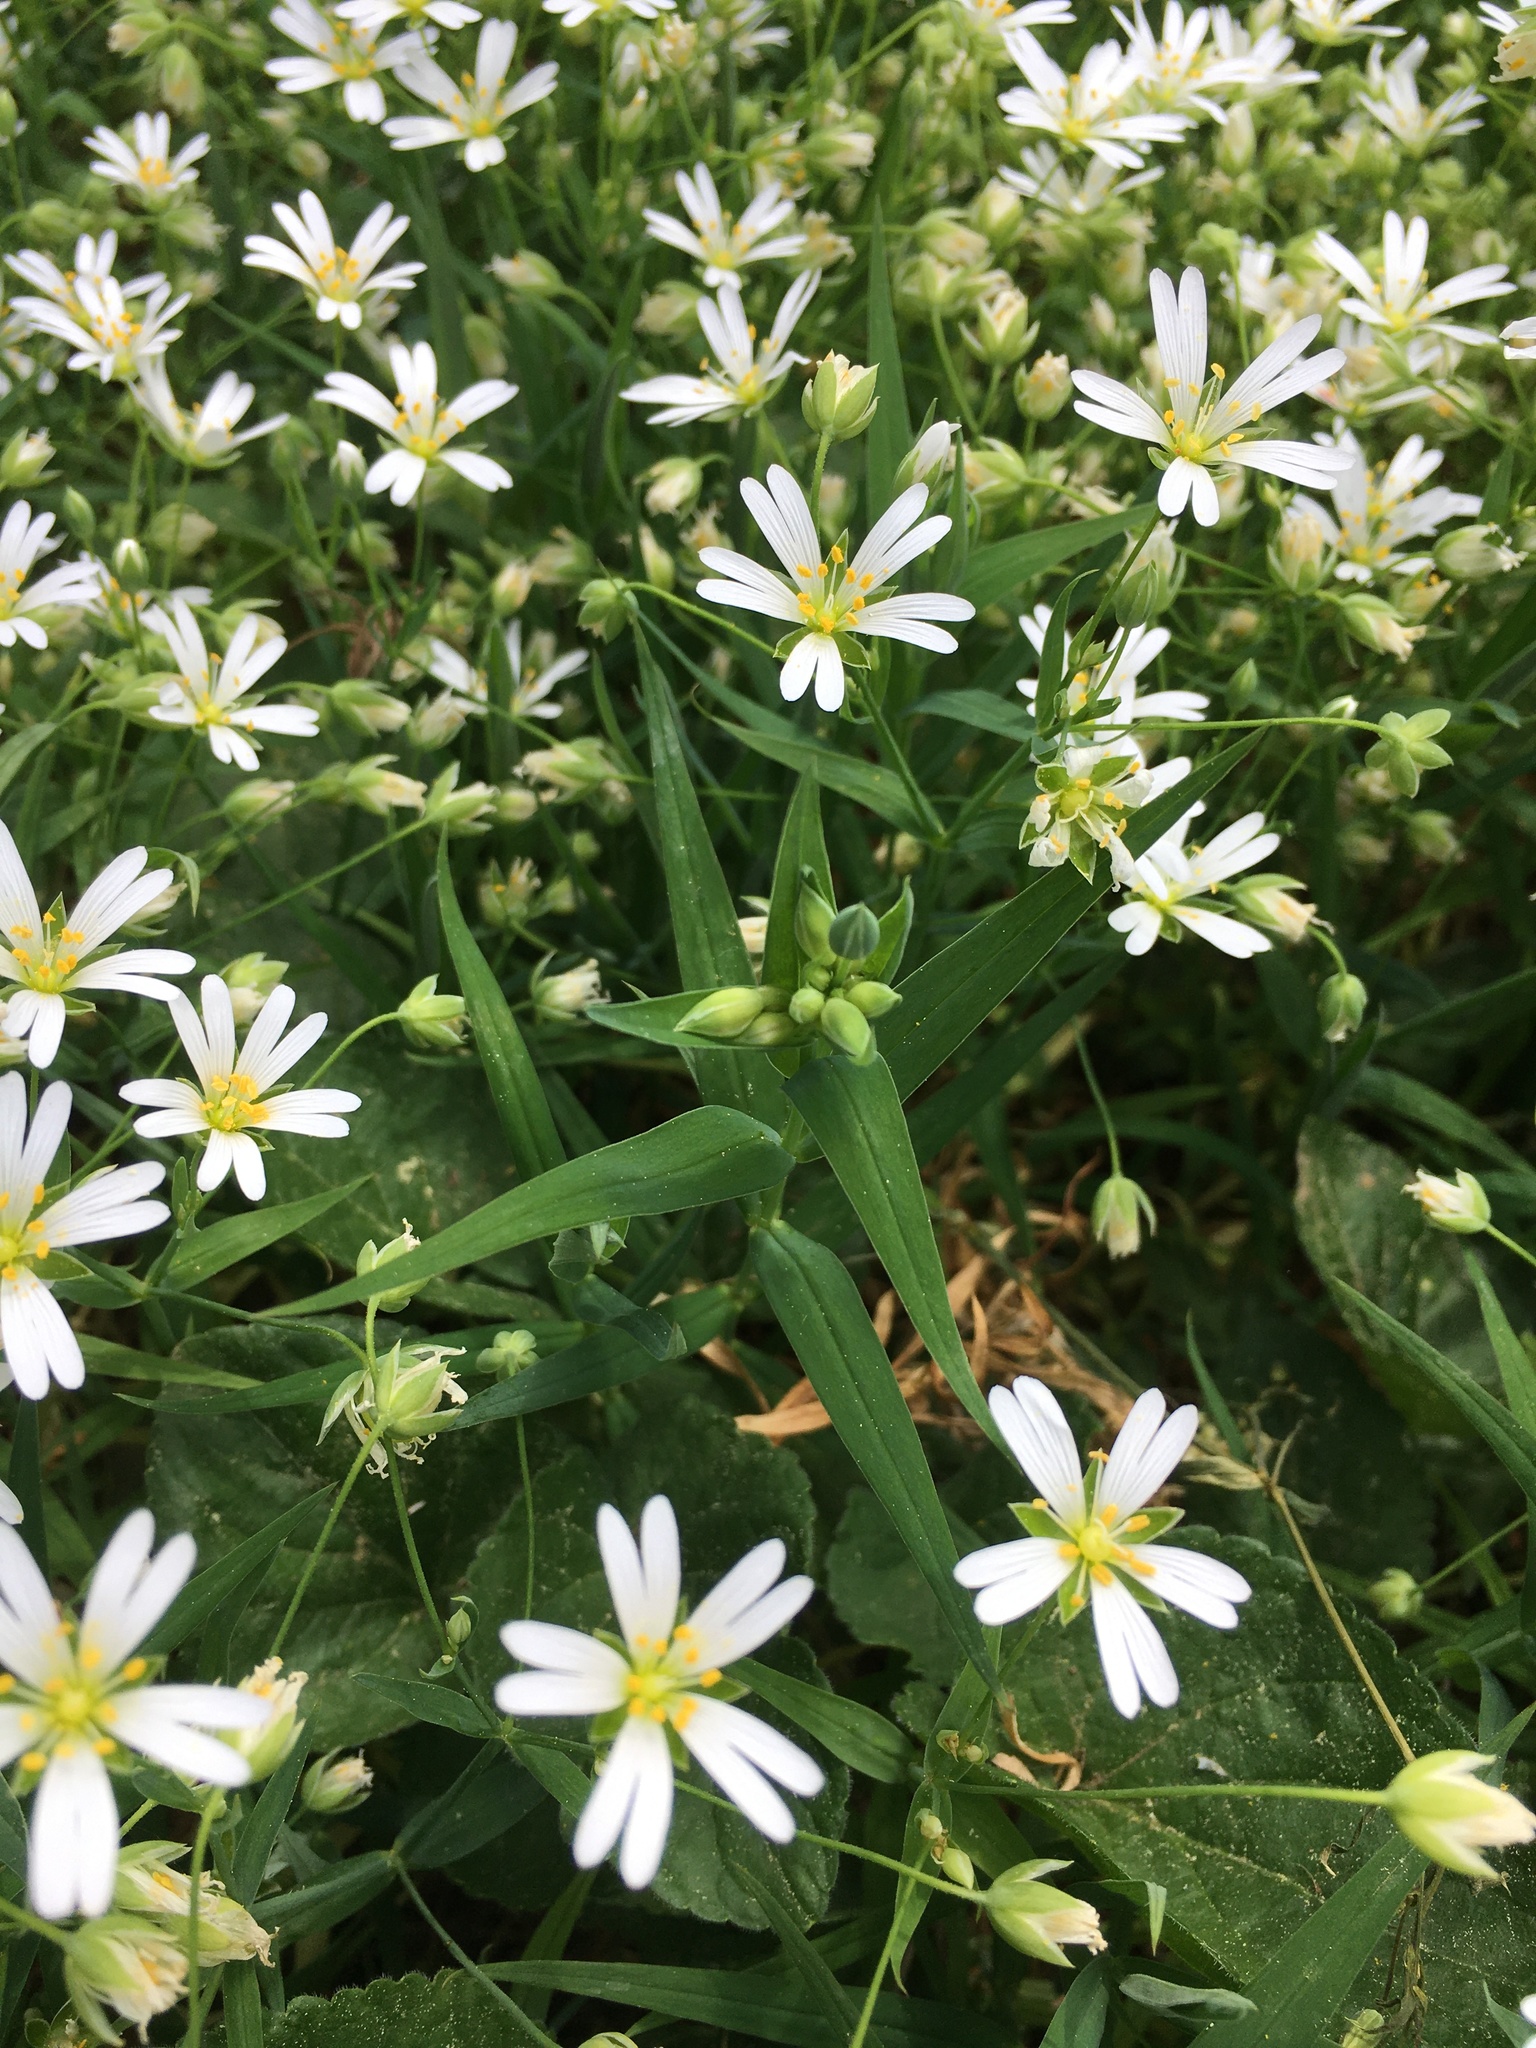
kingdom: Plantae
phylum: Tracheophyta
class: Magnoliopsida
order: Caryophyllales
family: Caryophyllaceae
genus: Rabelera
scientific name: Rabelera holostea
